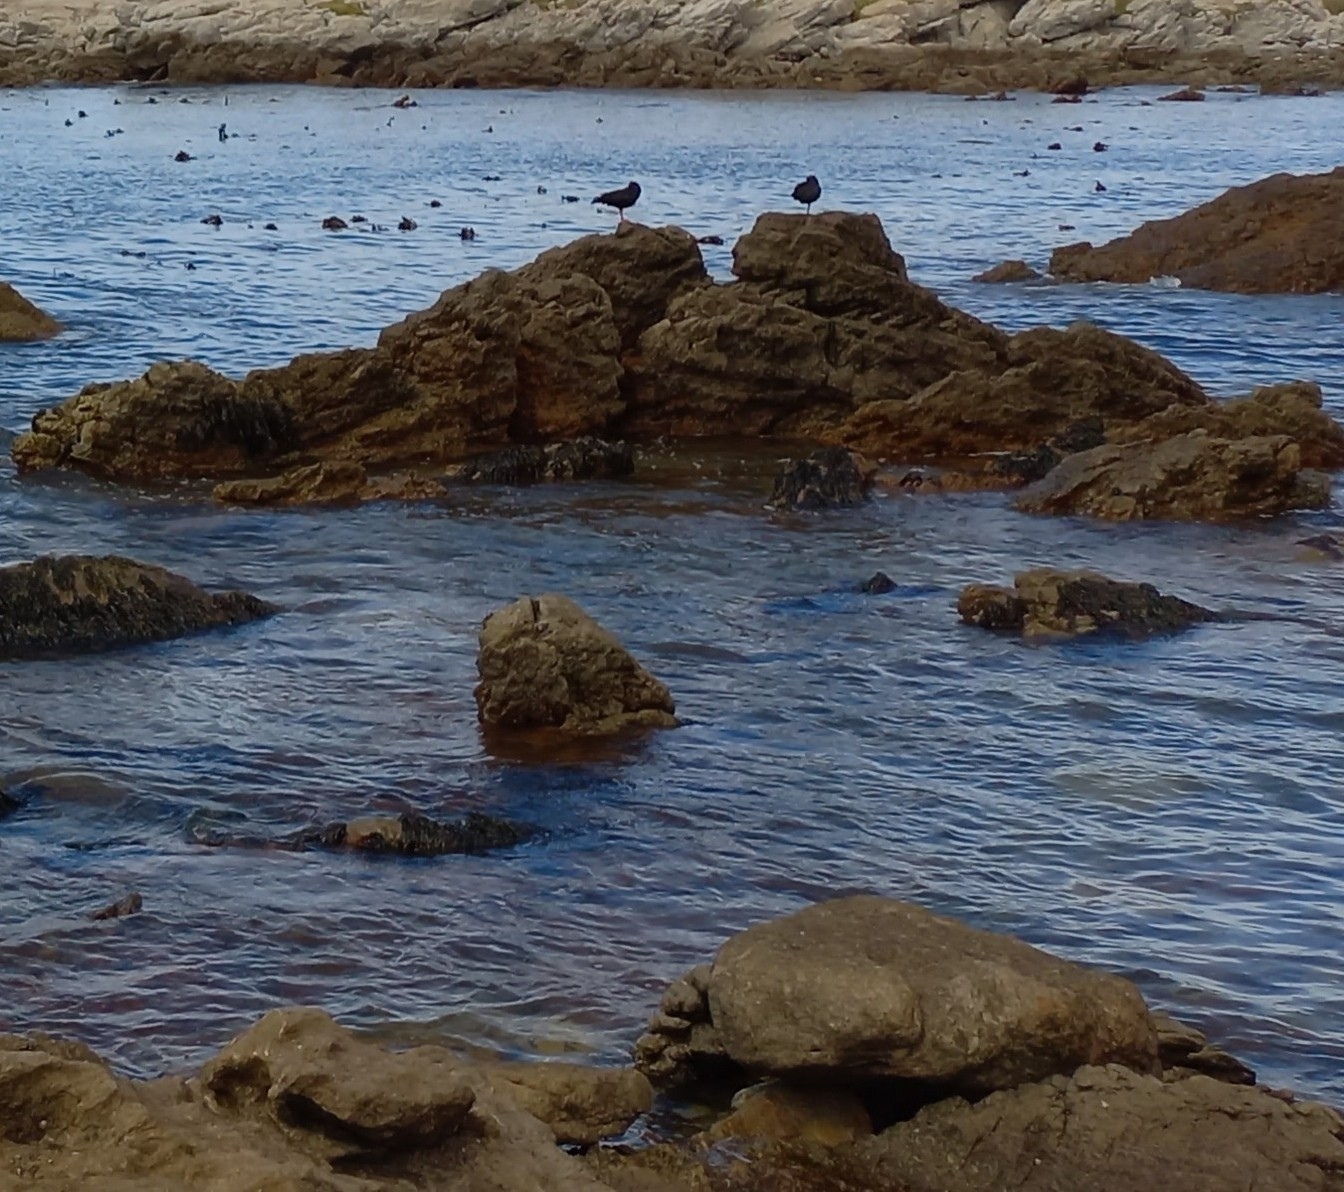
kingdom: Animalia
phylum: Chordata
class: Aves
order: Charadriiformes
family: Haematopodidae
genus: Haematopus
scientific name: Haematopus moquini
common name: African oystercatcher
